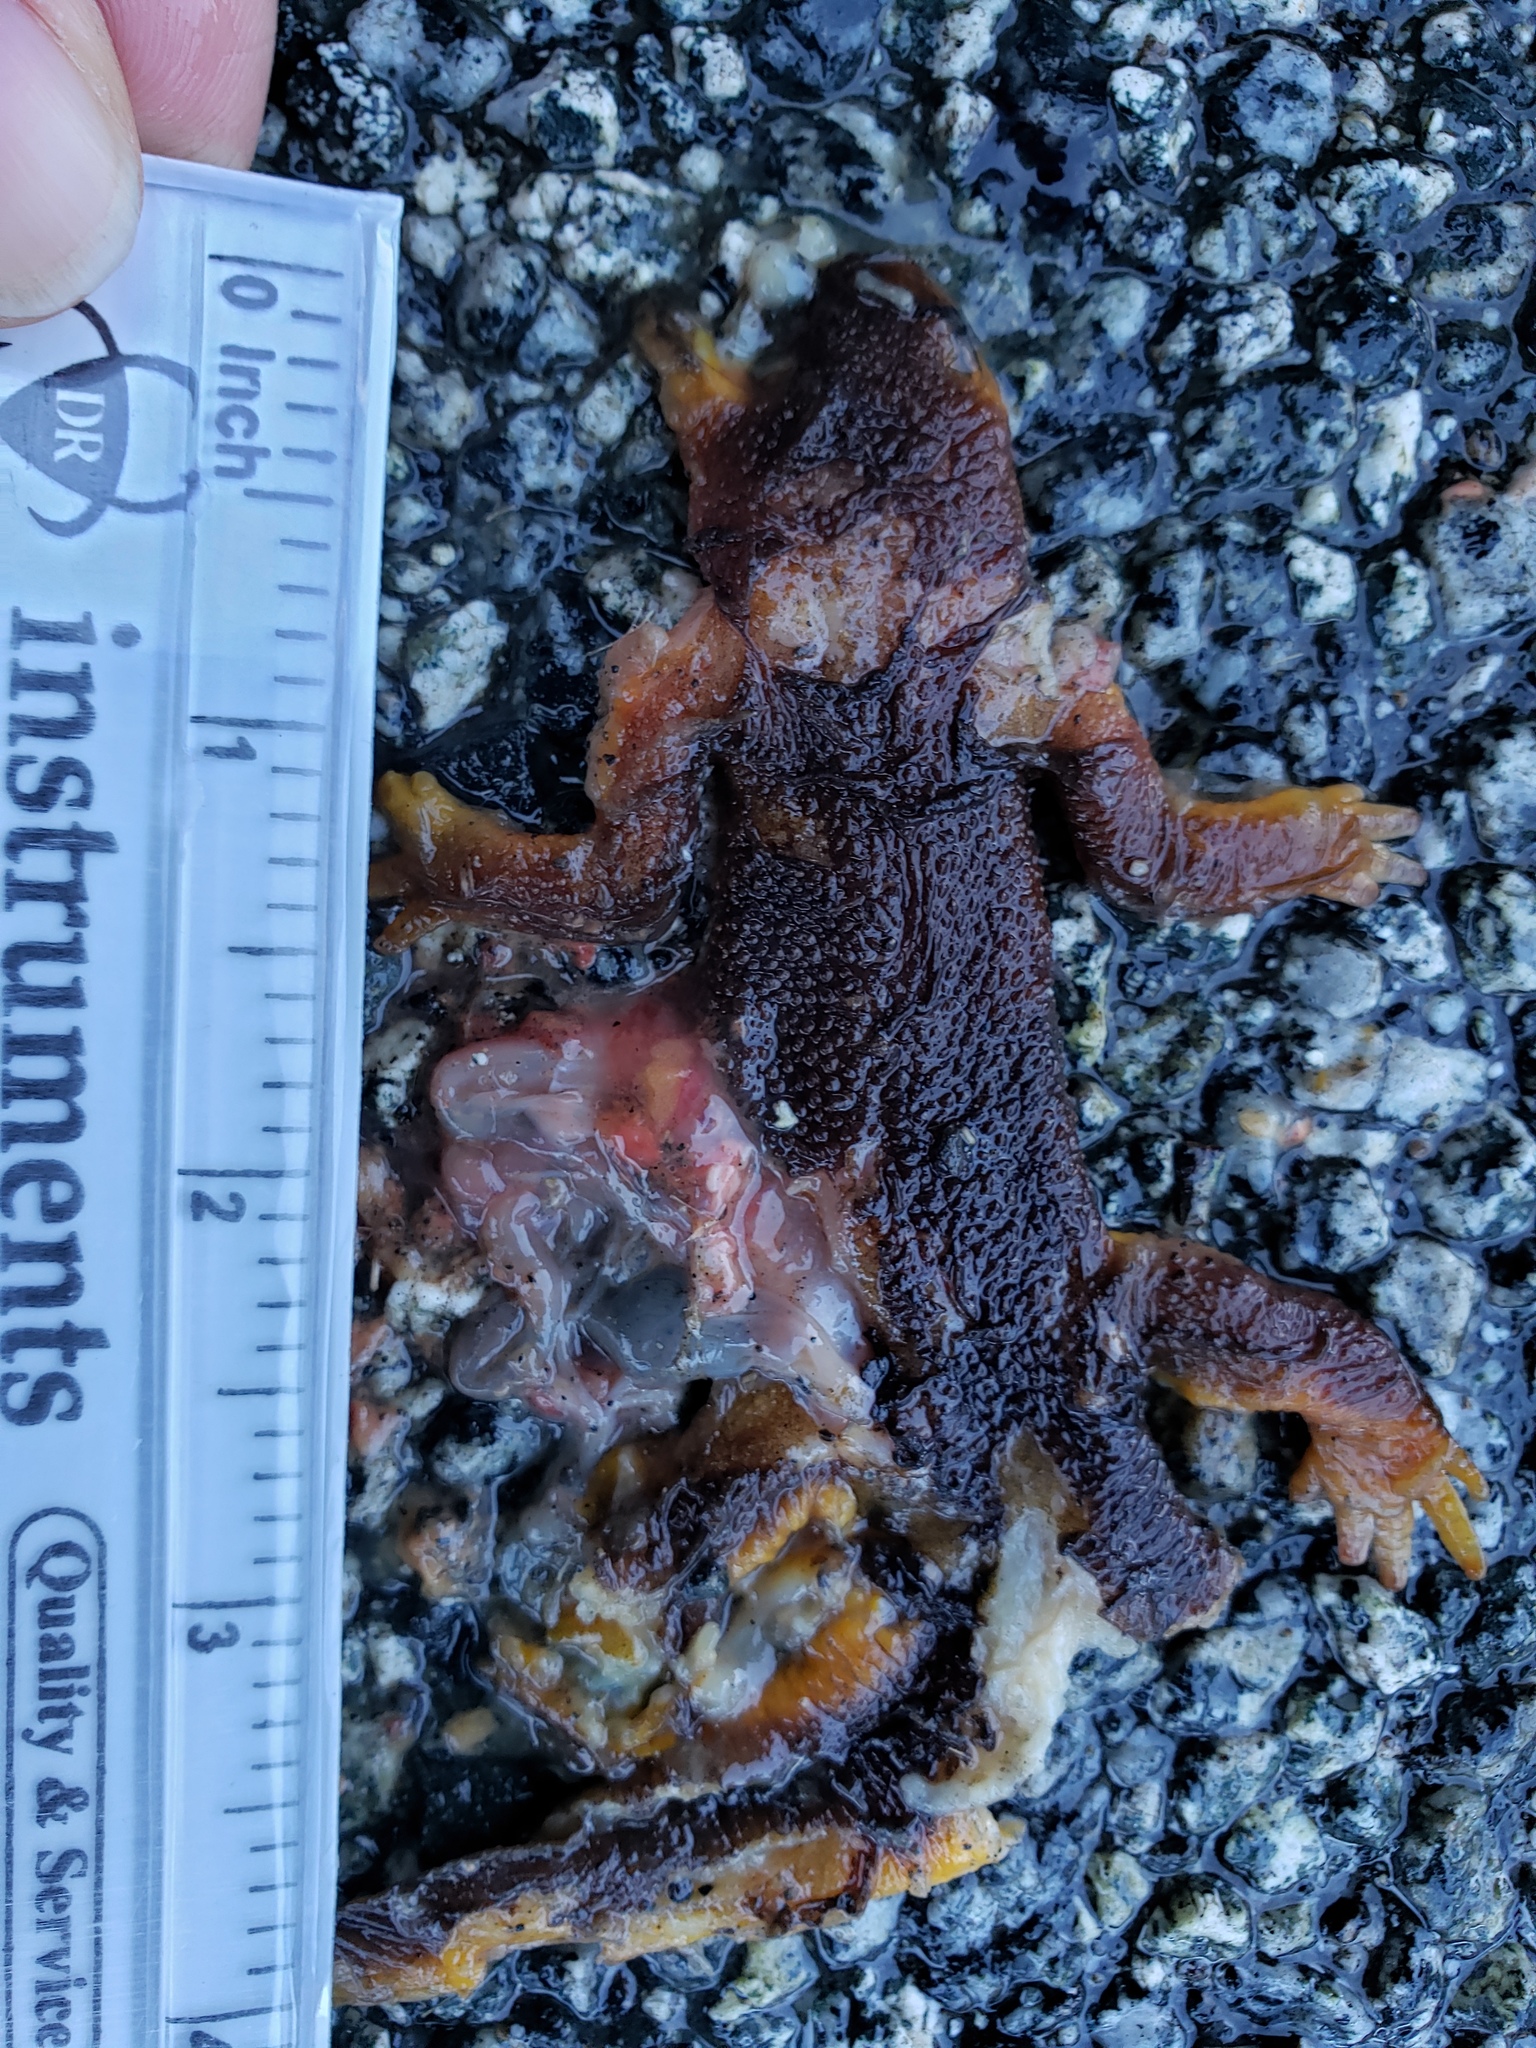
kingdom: Animalia
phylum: Chordata
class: Amphibia
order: Caudata
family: Salamandridae
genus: Taricha
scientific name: Taricha
